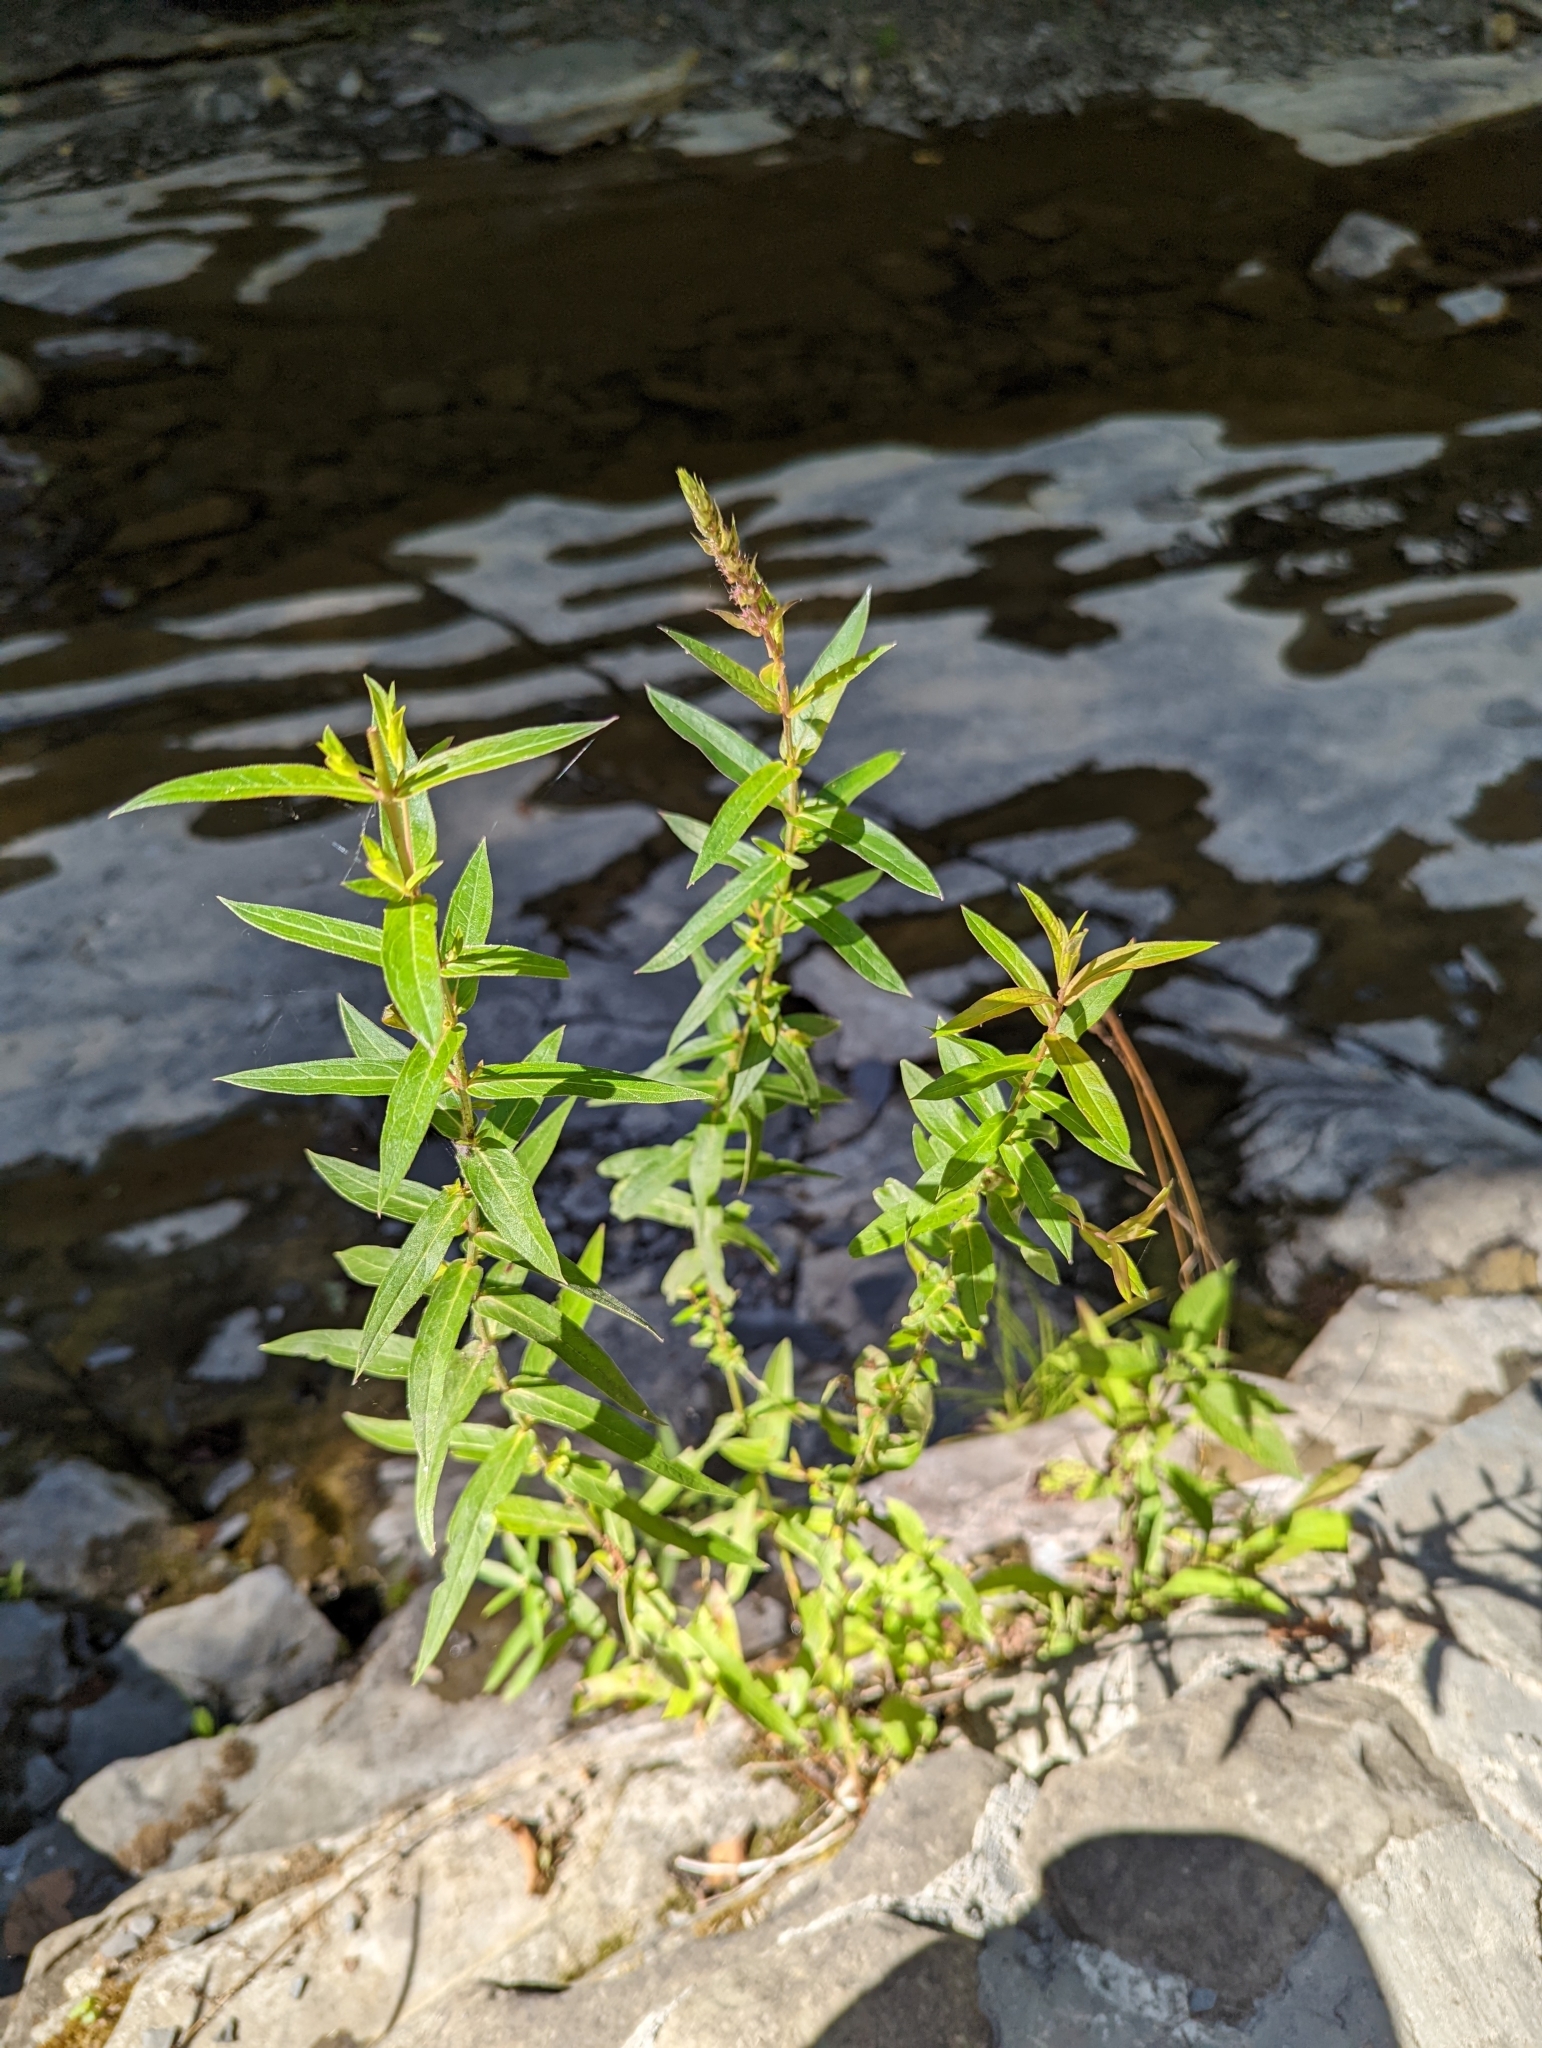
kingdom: Plantae
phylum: Tracheophyta
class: Magnoliopsida
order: Myrtales
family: Lythraceae
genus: Lythrum
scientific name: Lythrum salicaria
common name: Purple loosestrife
